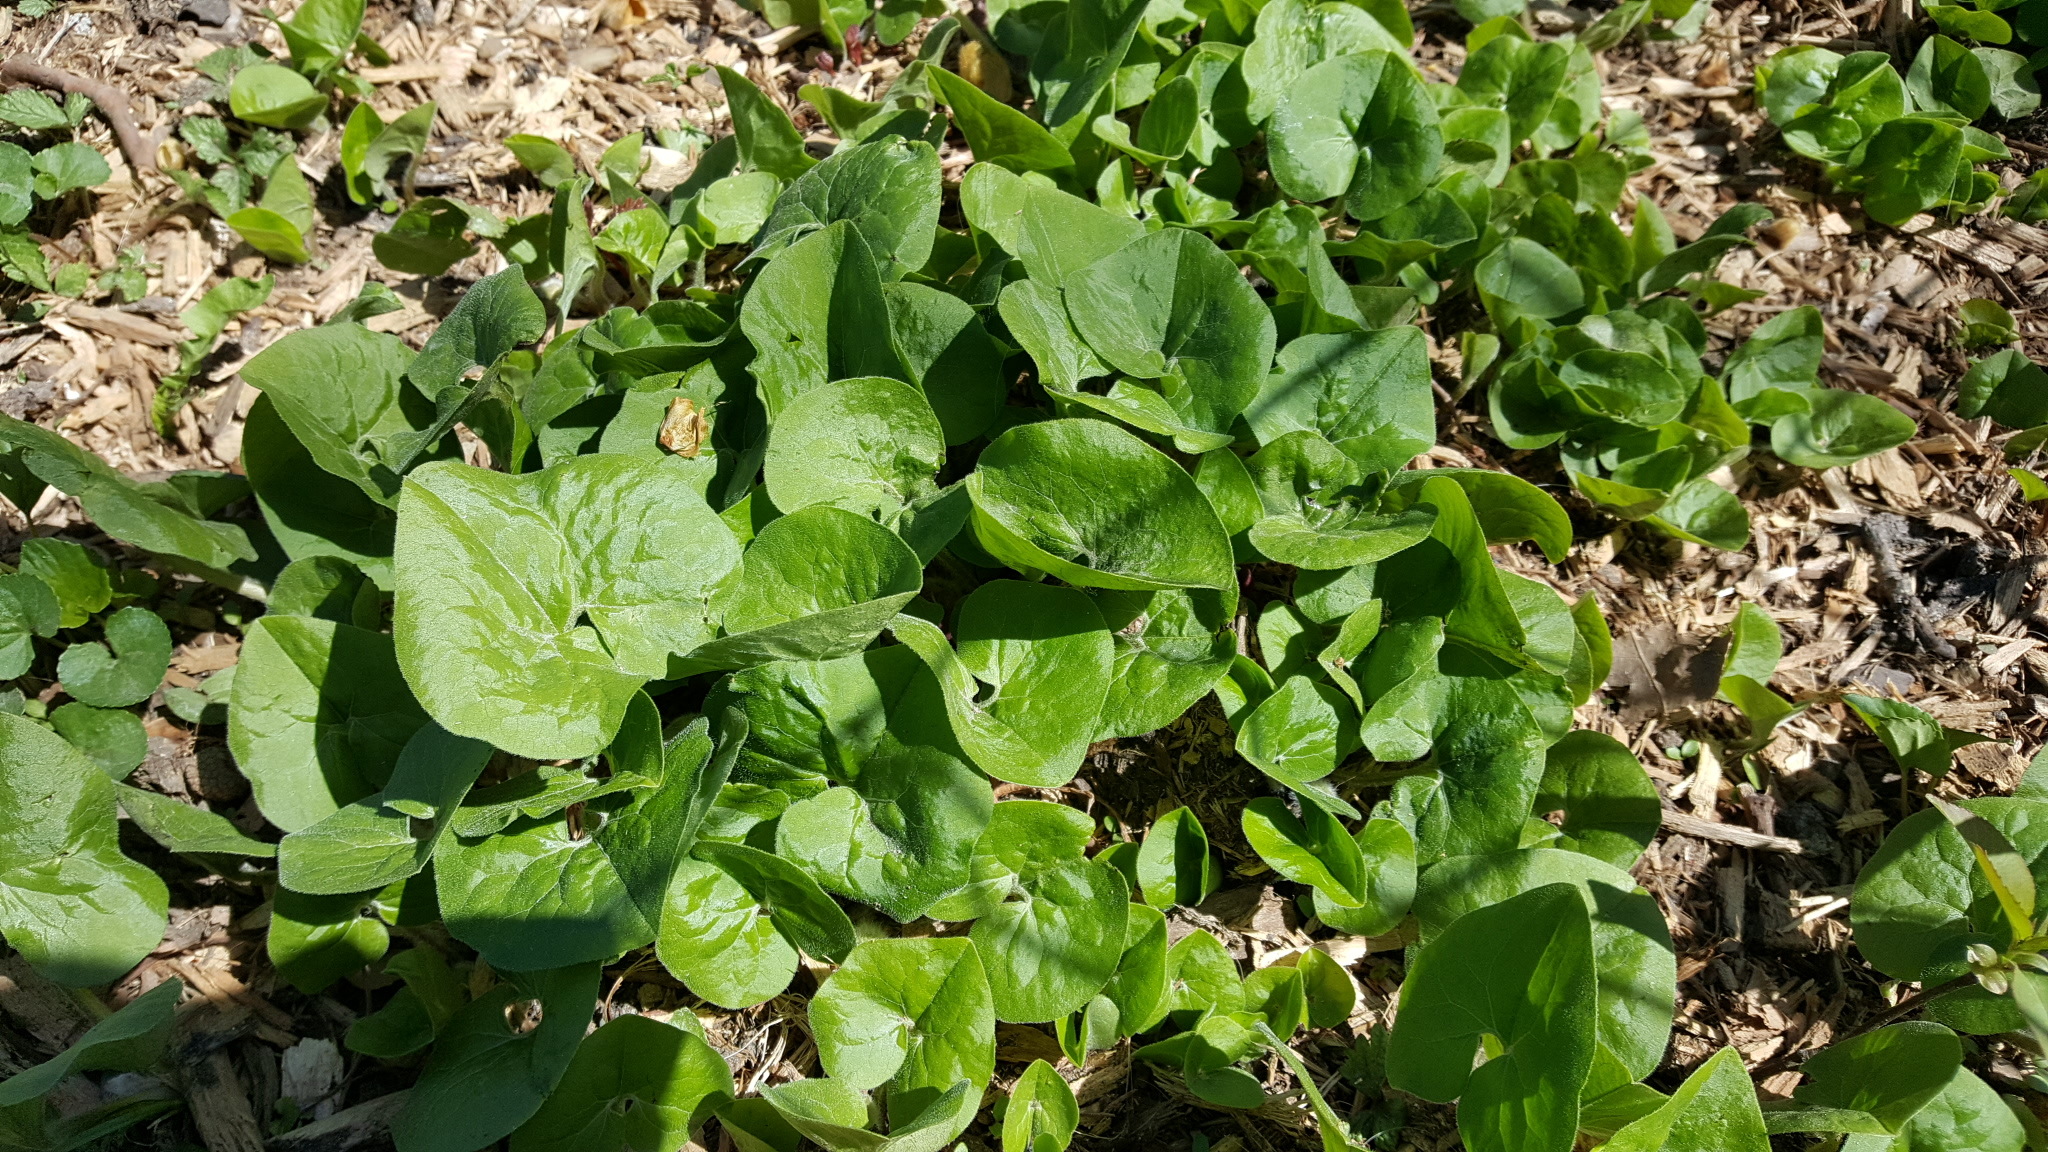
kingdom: Plantae
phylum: Tracheophyta
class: Magnoliopsida
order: Piperales
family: Aristolochiaceae
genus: Asarum
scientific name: Asarum canadense
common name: Wild ginger
